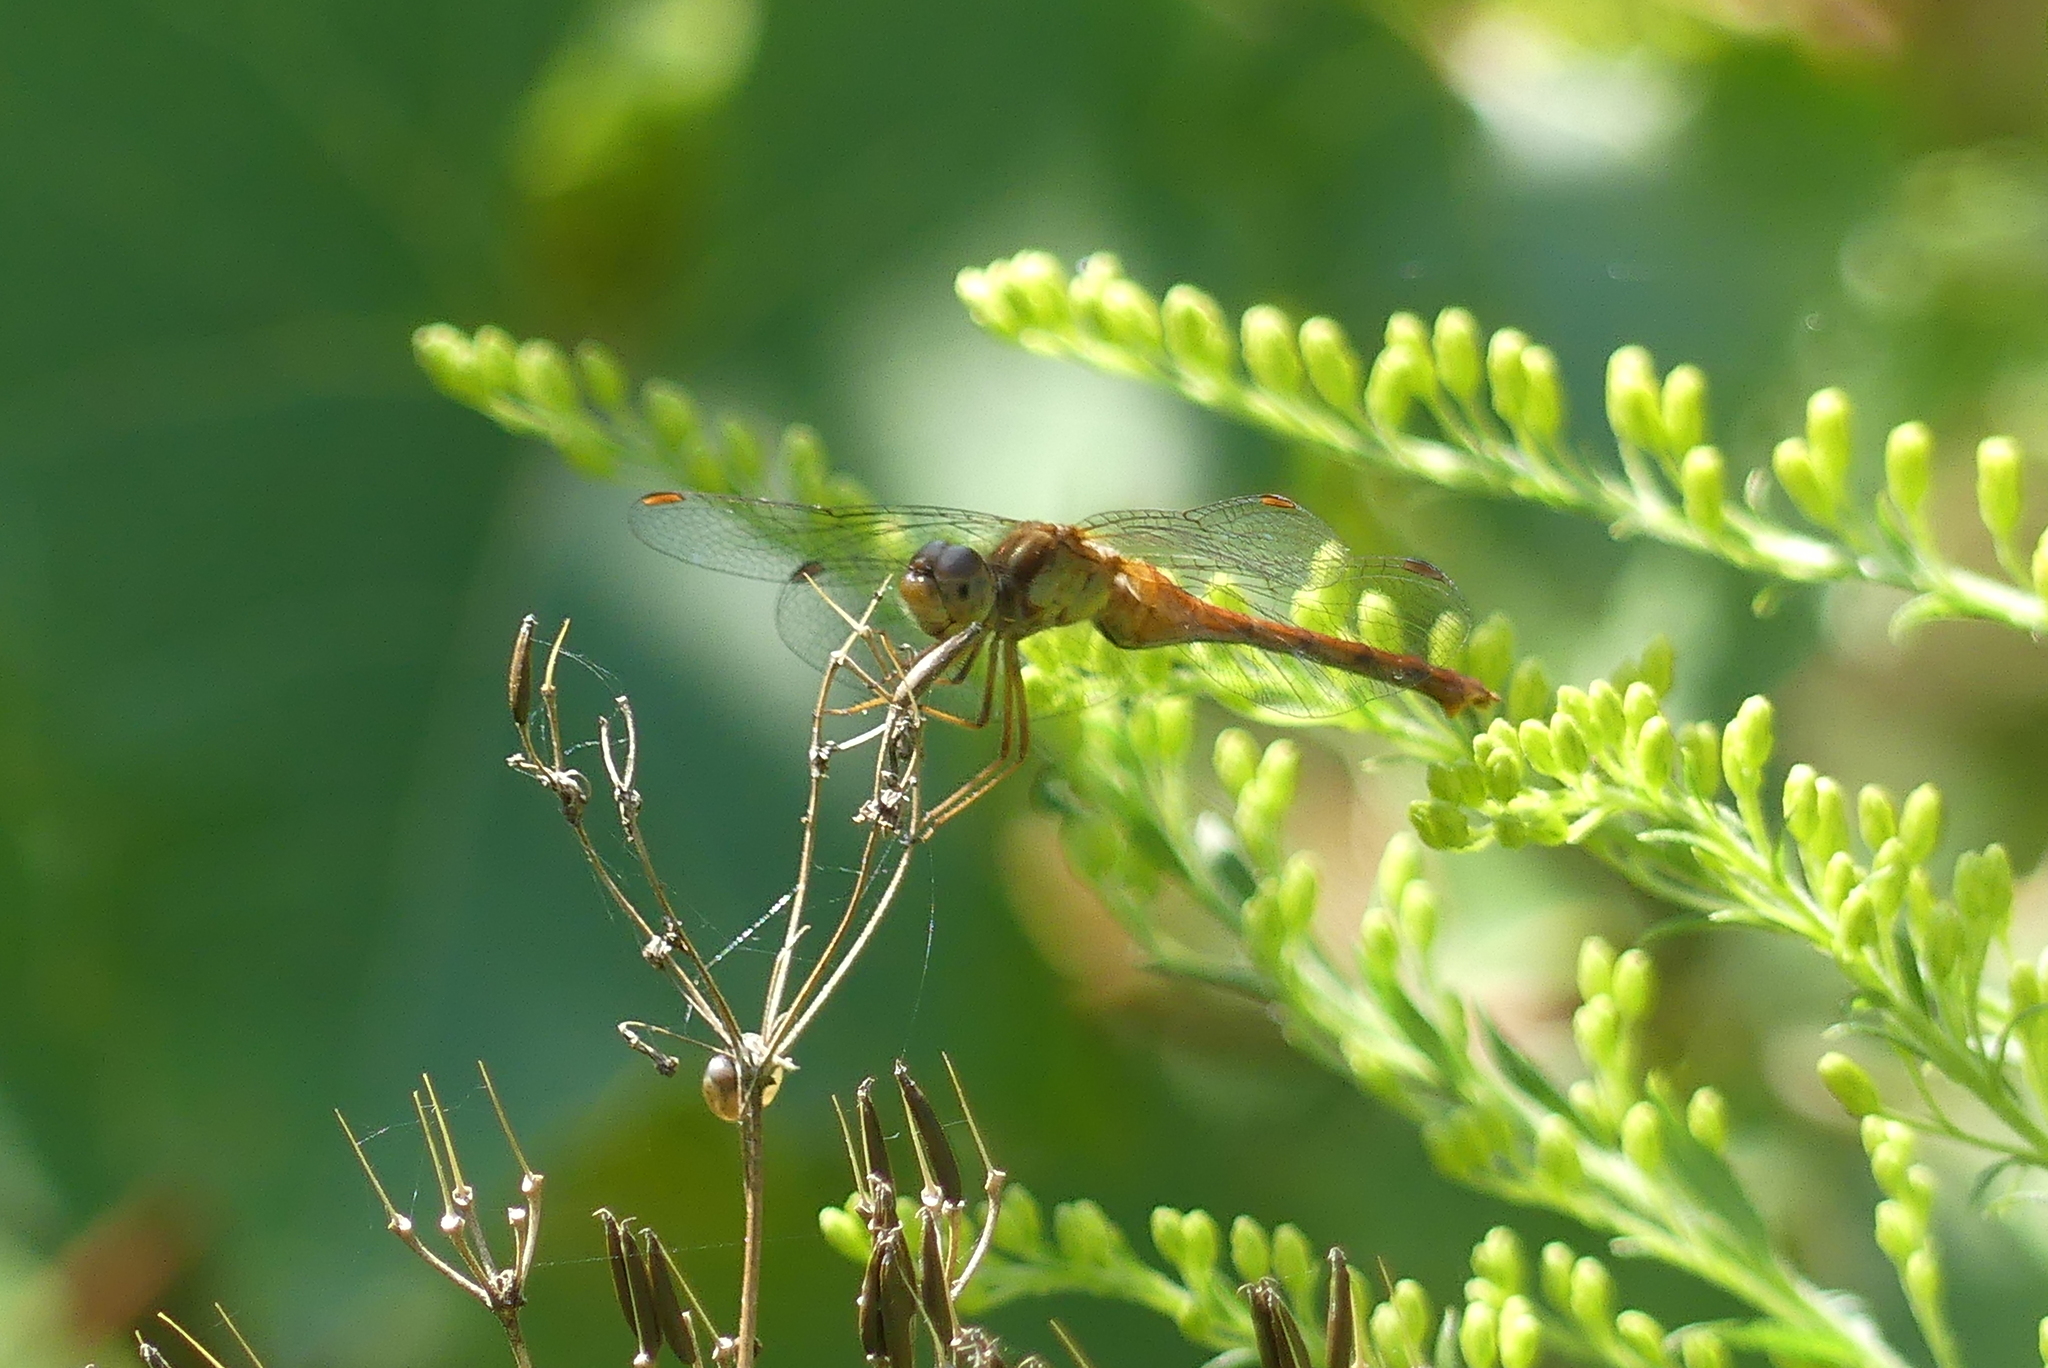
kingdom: Animalia
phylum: Arthropoda
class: Insecta
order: Odonata
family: Libellulidae
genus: Sympetrum
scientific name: Sympetrum vicinum
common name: Autumn meadowhawk
